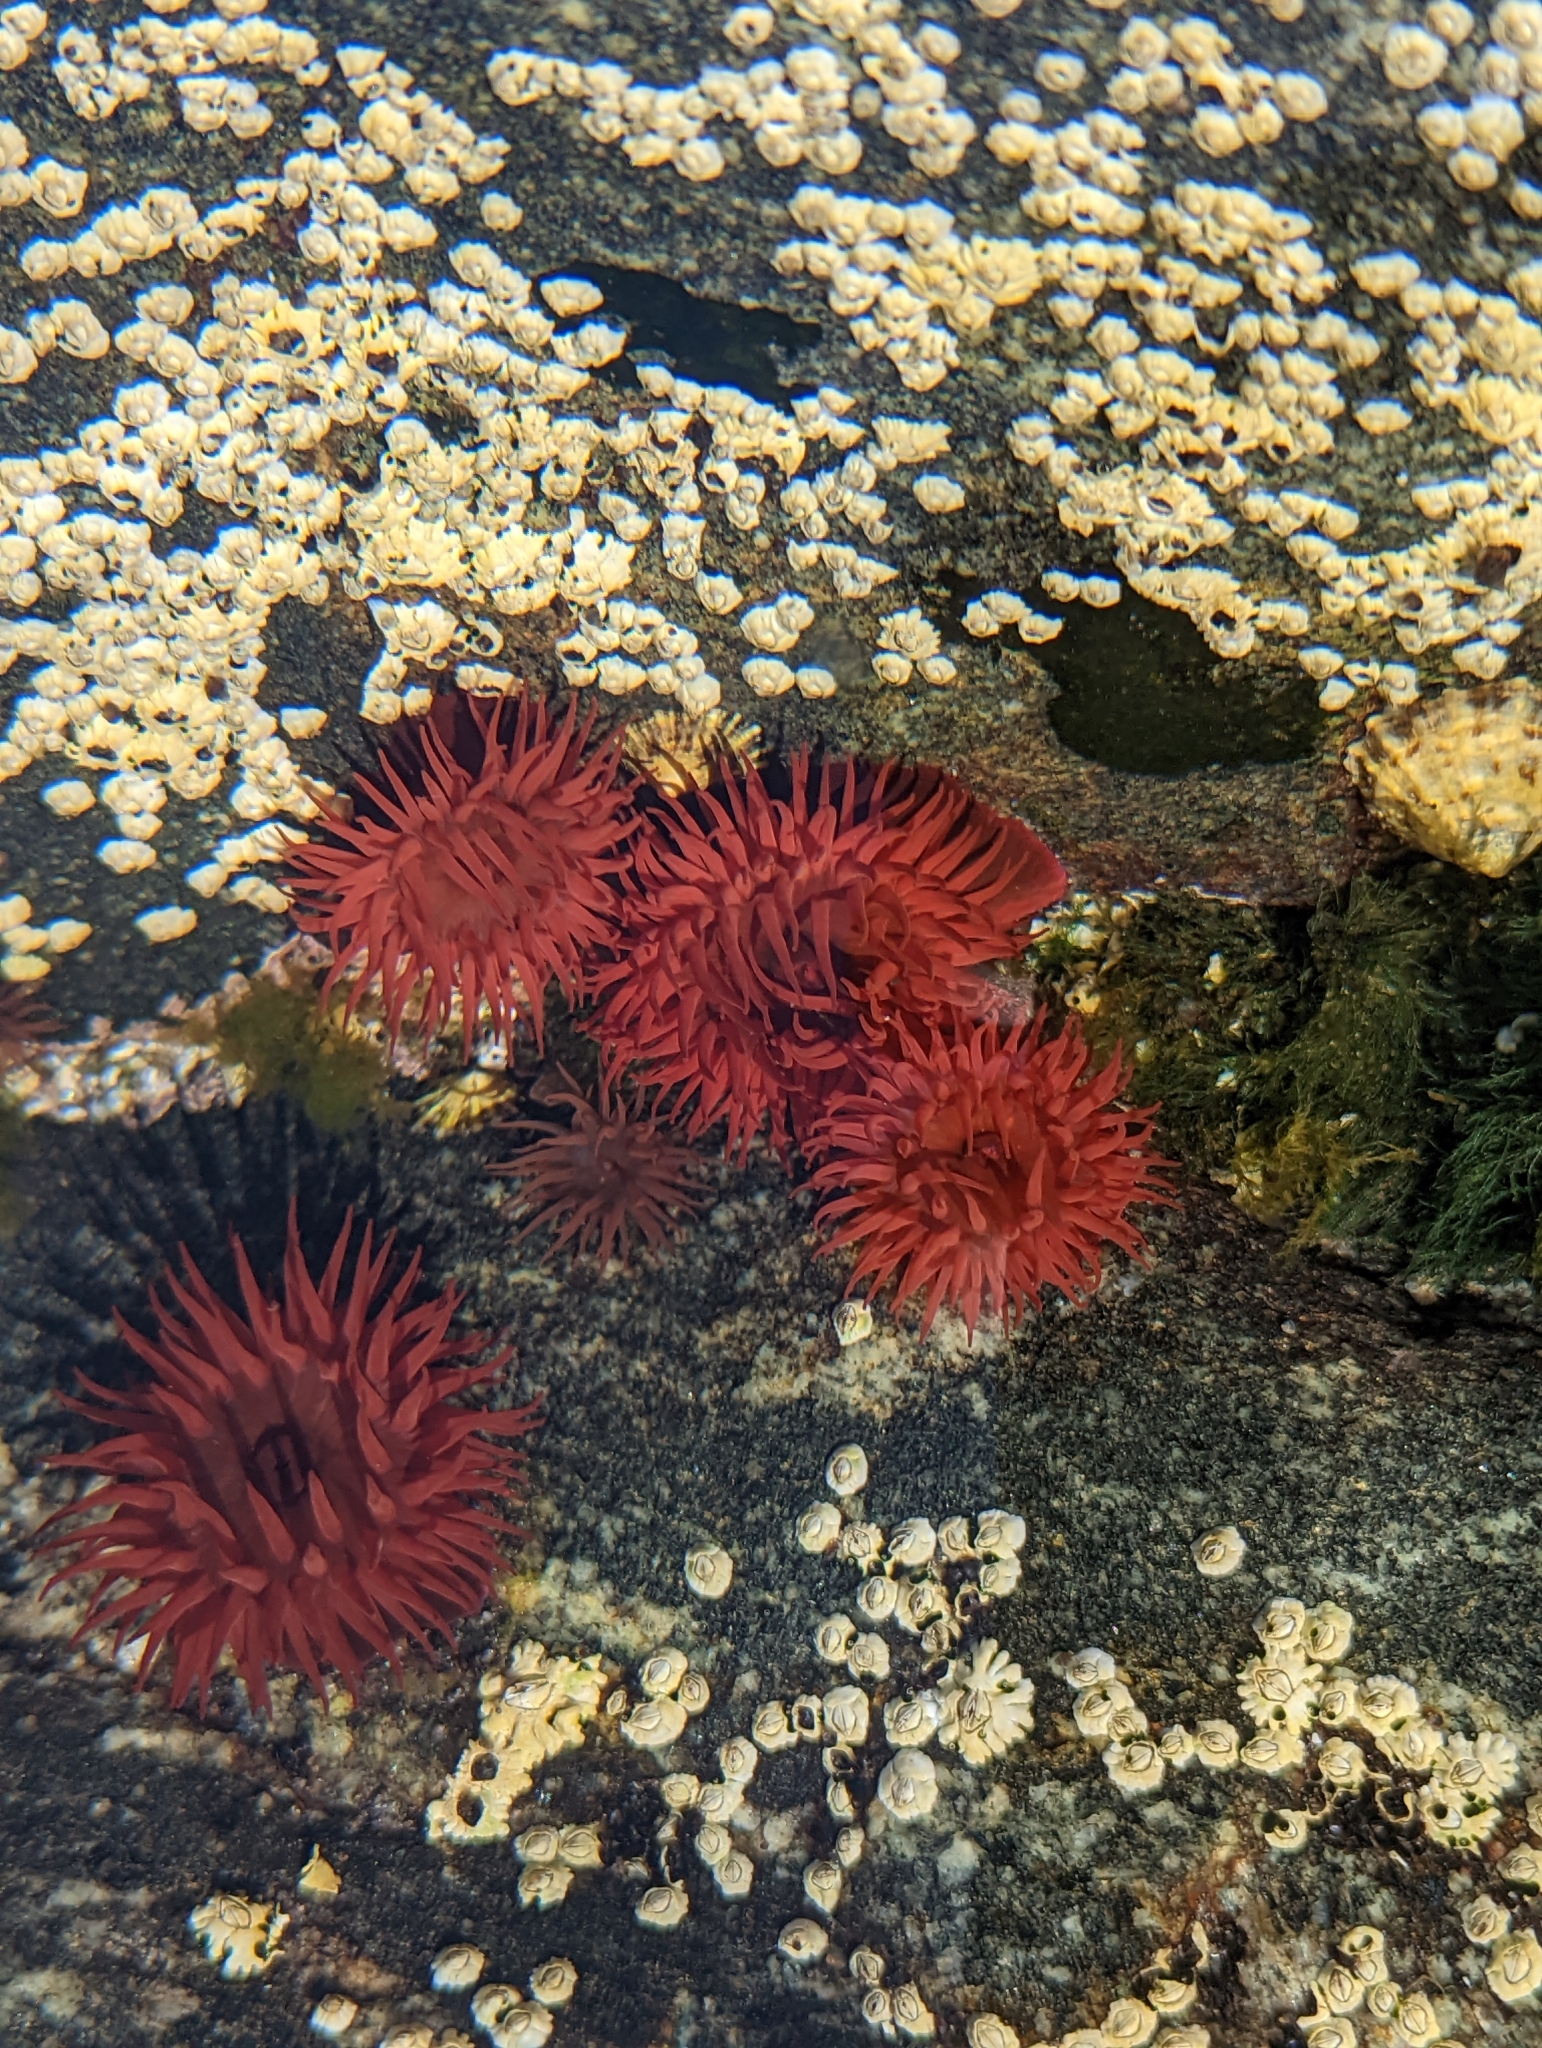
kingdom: Animalia
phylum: Cnidaria
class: Anthozoa
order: Actiniaria
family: Actiniidae
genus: Actinia
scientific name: Actinia equina
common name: Beadlet anemone
